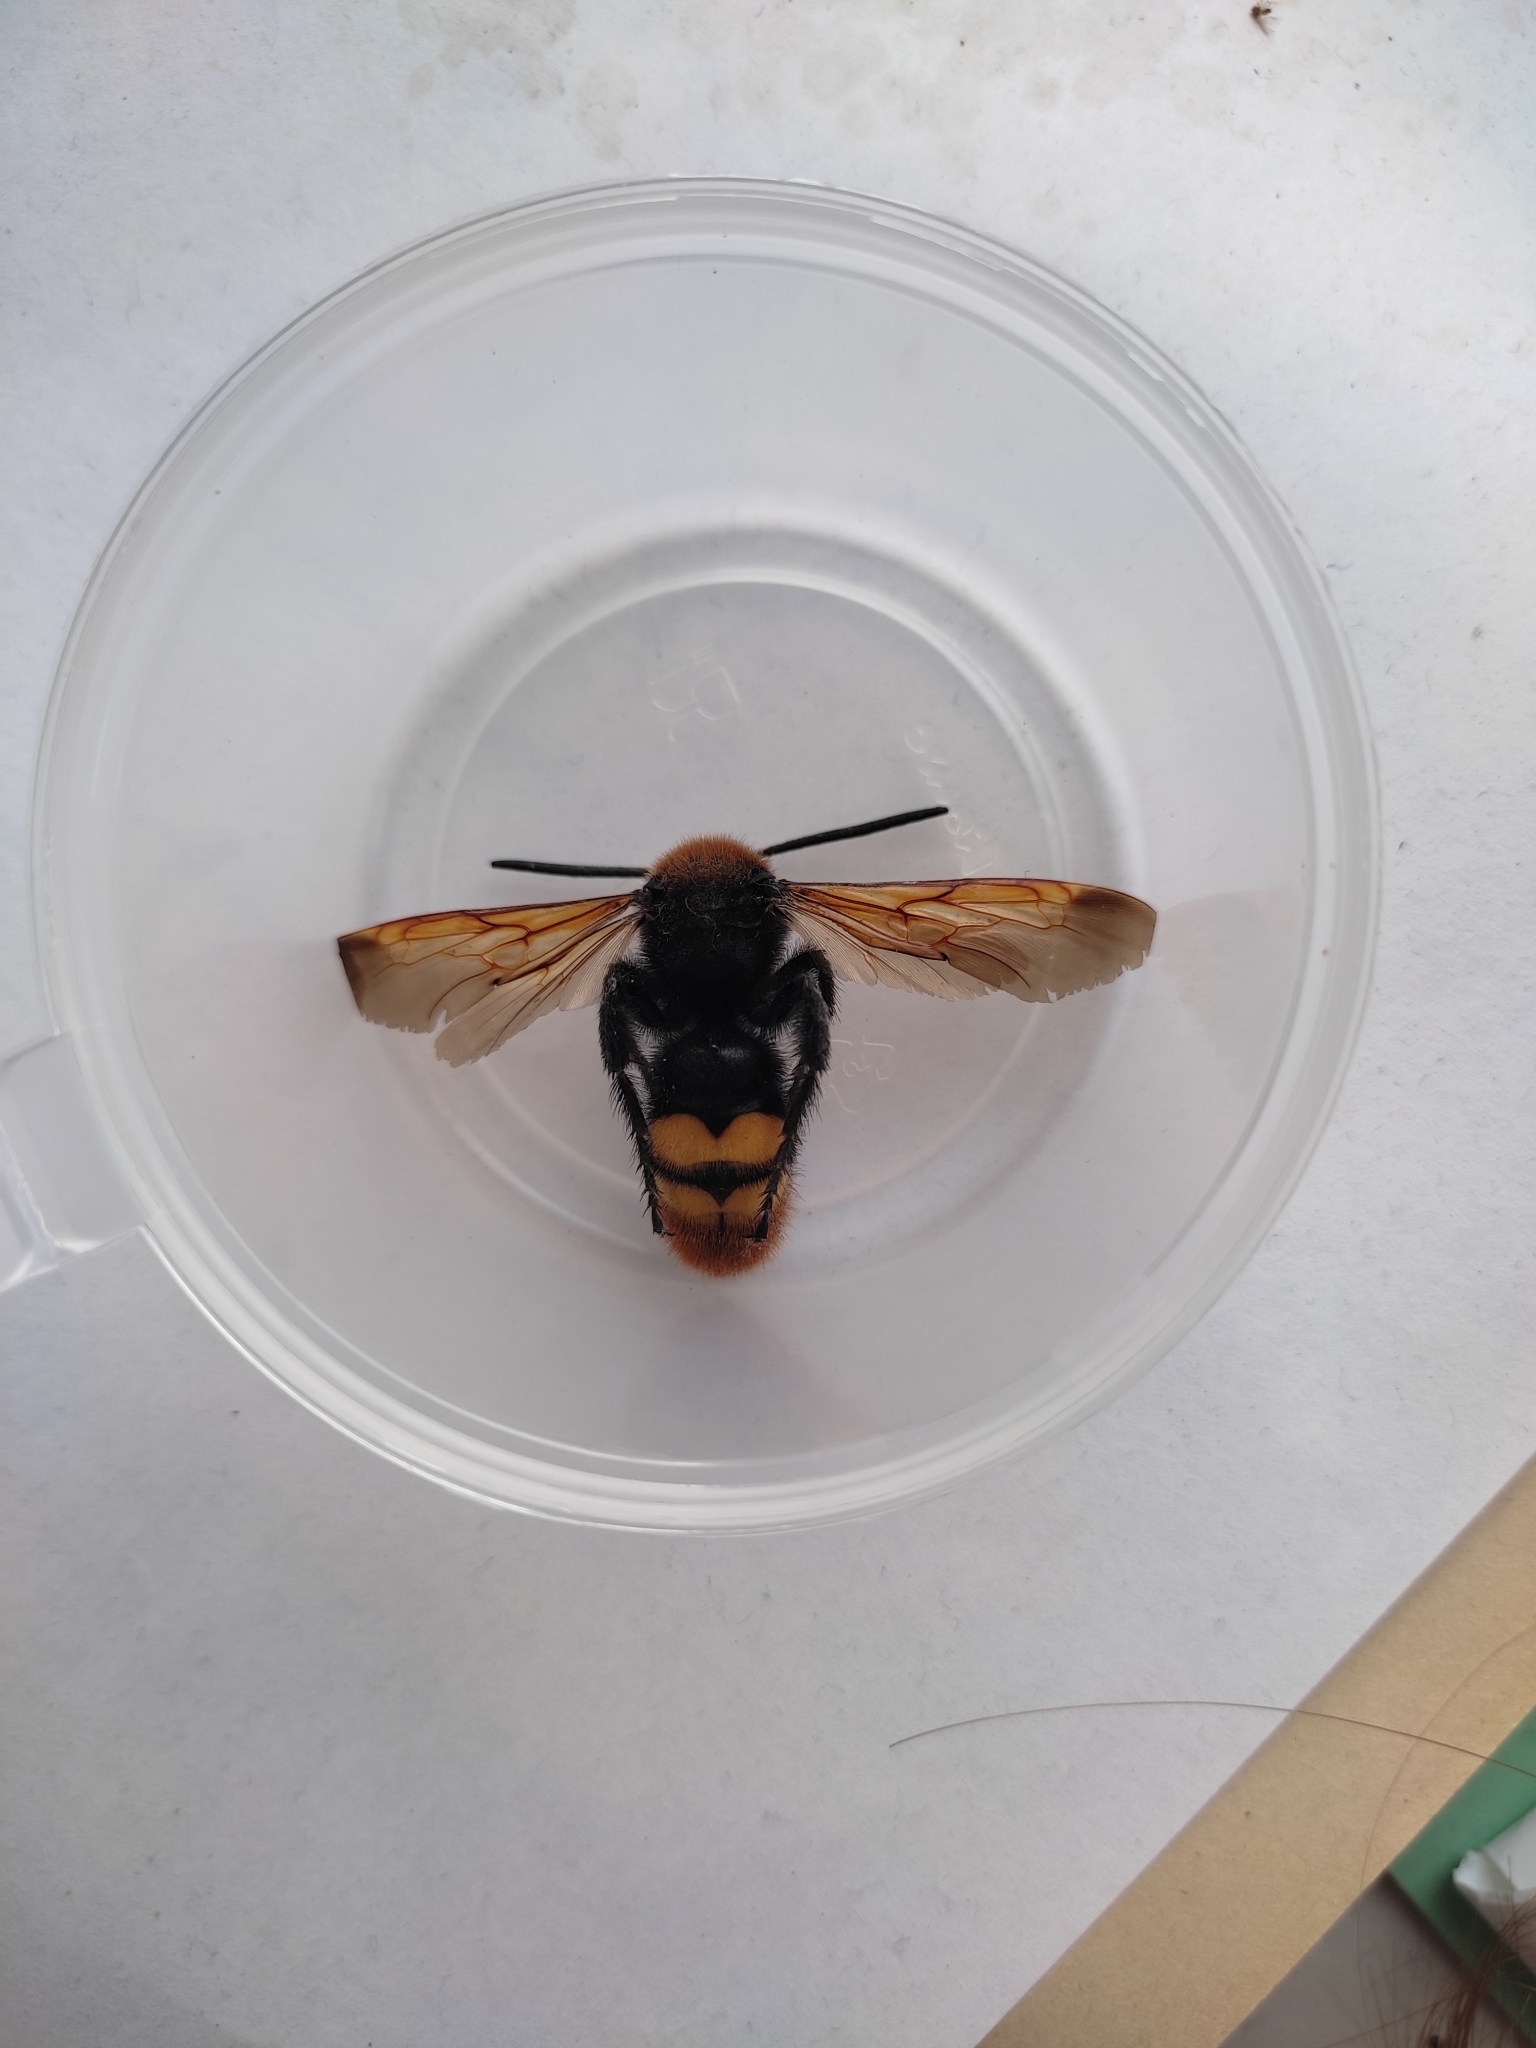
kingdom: Animalia
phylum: Arthropoda
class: Insecta
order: Hymenoptera
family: Scoliidae
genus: Megascolia
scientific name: Megascolia maculata
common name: Mammoth wasp
